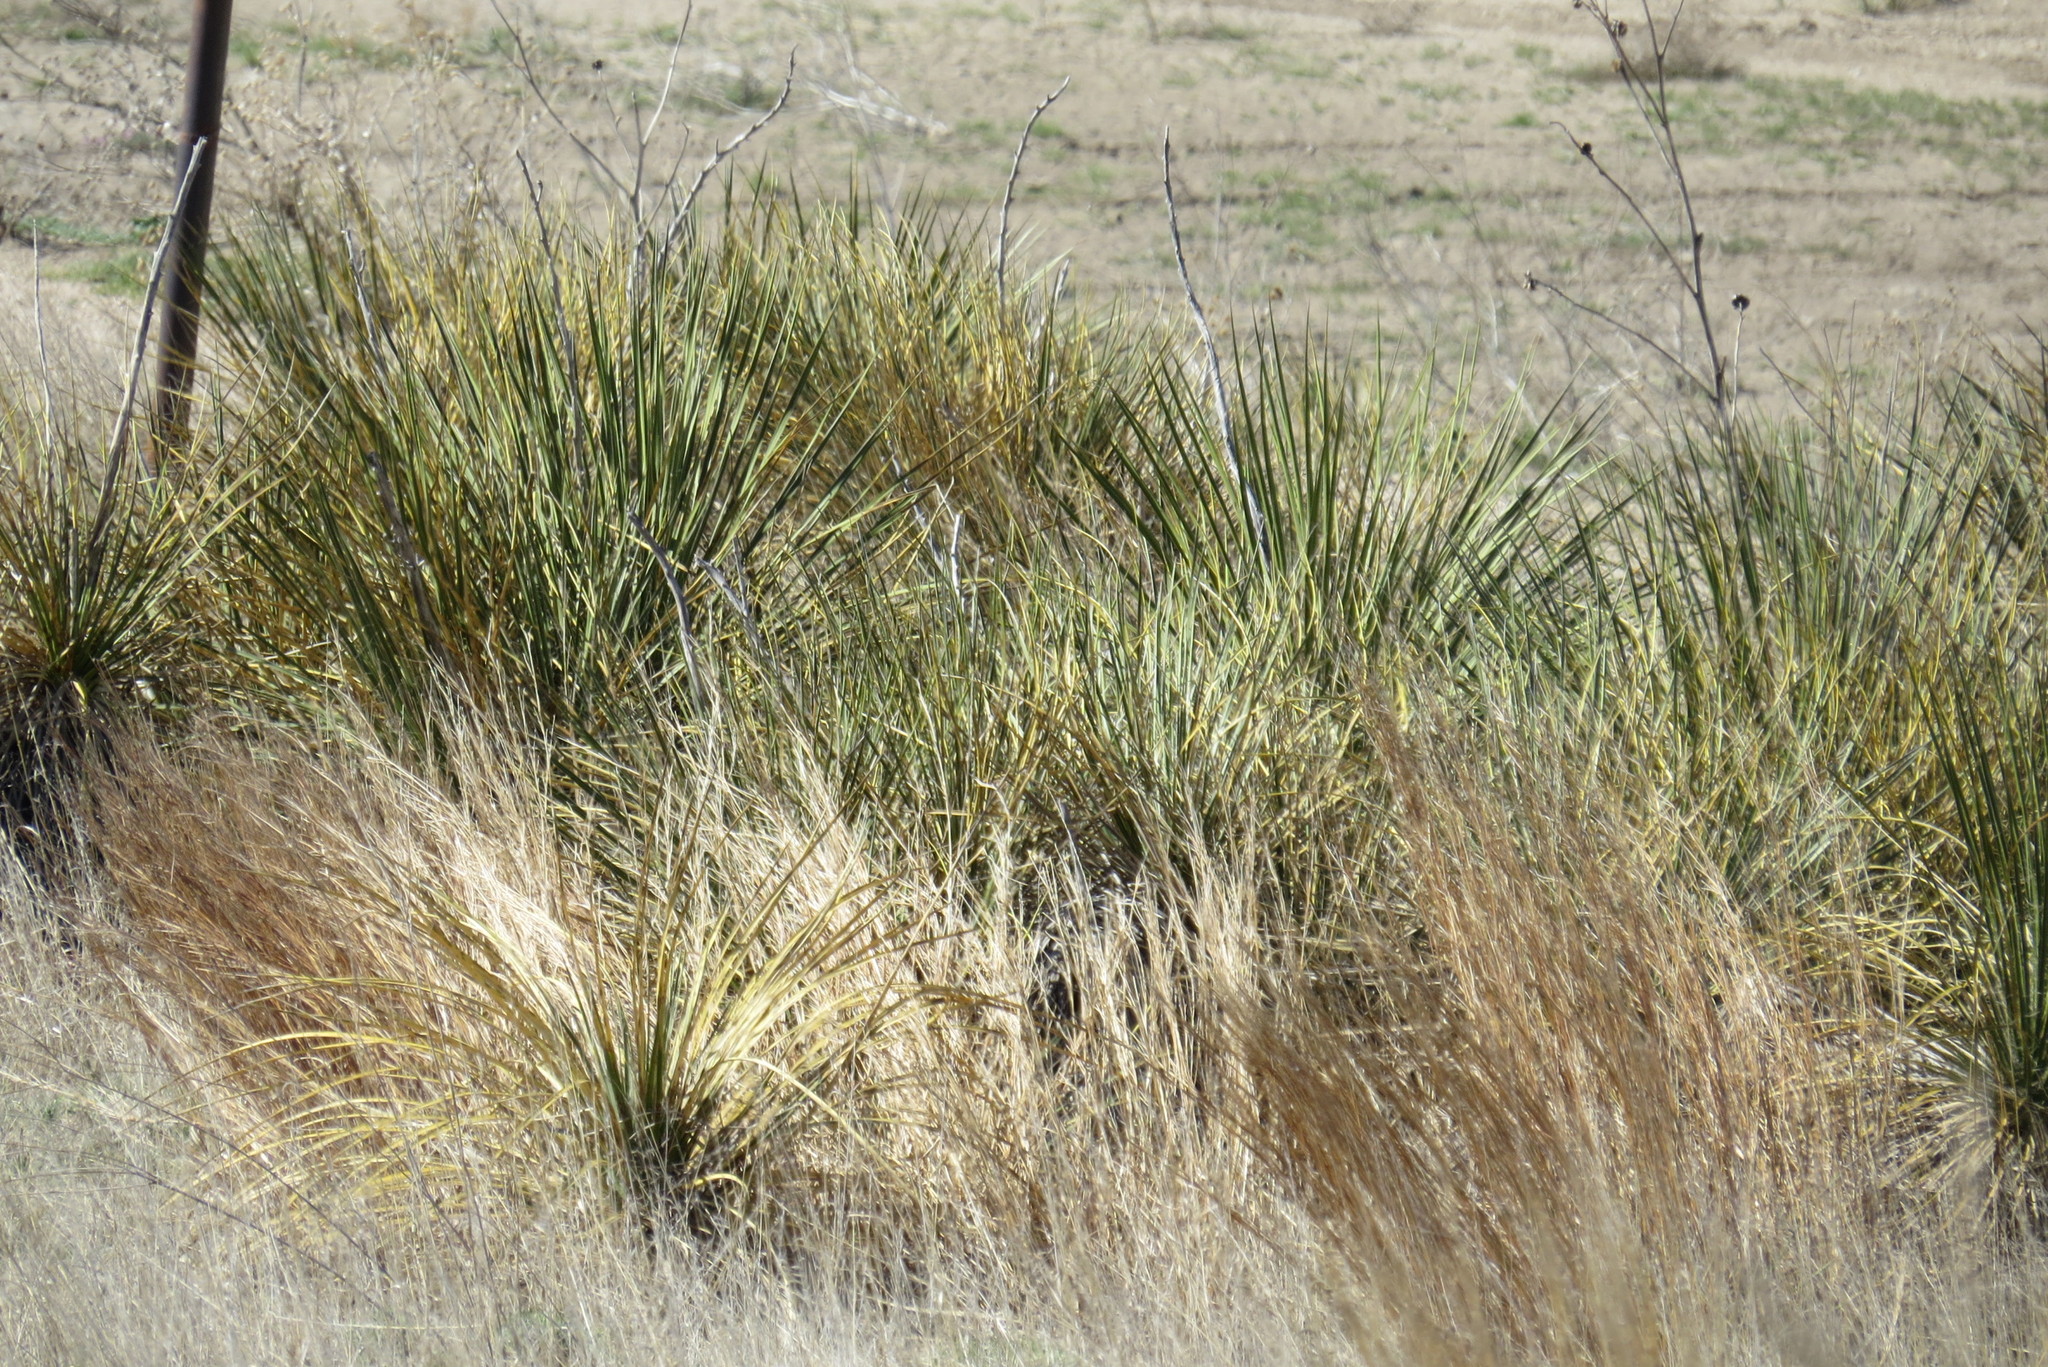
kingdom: Plantae
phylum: Tracheophyta
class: Liliopsida
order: Asparagales
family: Asparagaceae
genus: Yucca
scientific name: Yucca glauca
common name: Great plains yucca
